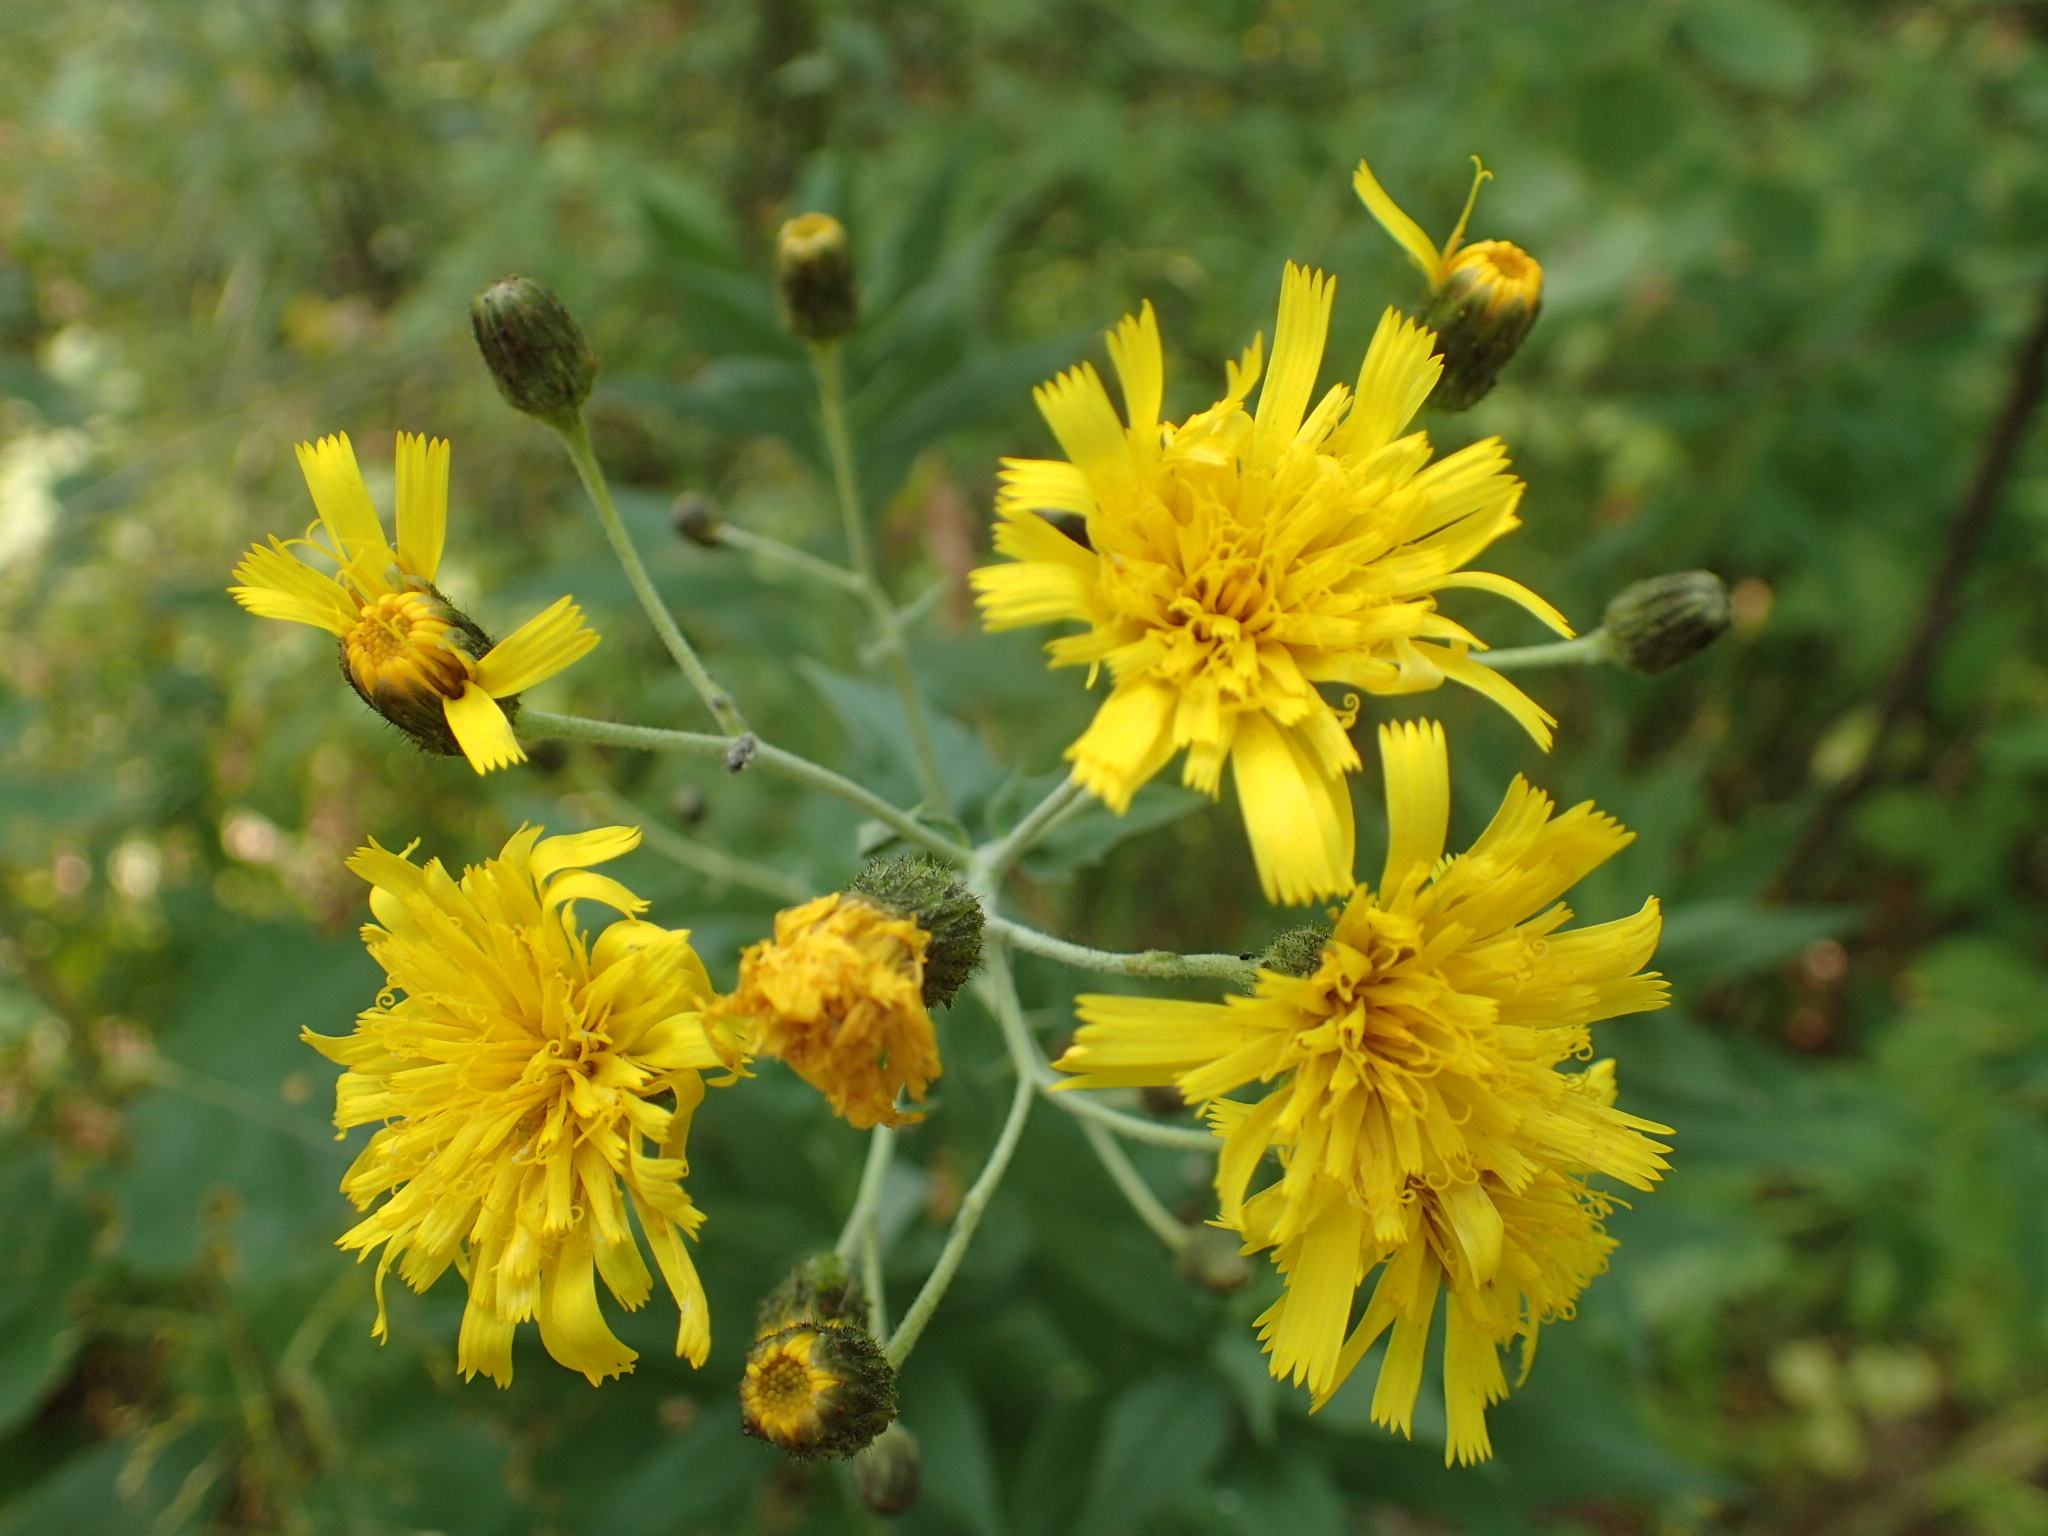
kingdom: Plantae
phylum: Tracheophyta
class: Magnoliopsida
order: Asterales
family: Asteraceae
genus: Hieracium
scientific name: Hieracium umbellatum
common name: Northern hawkweed
